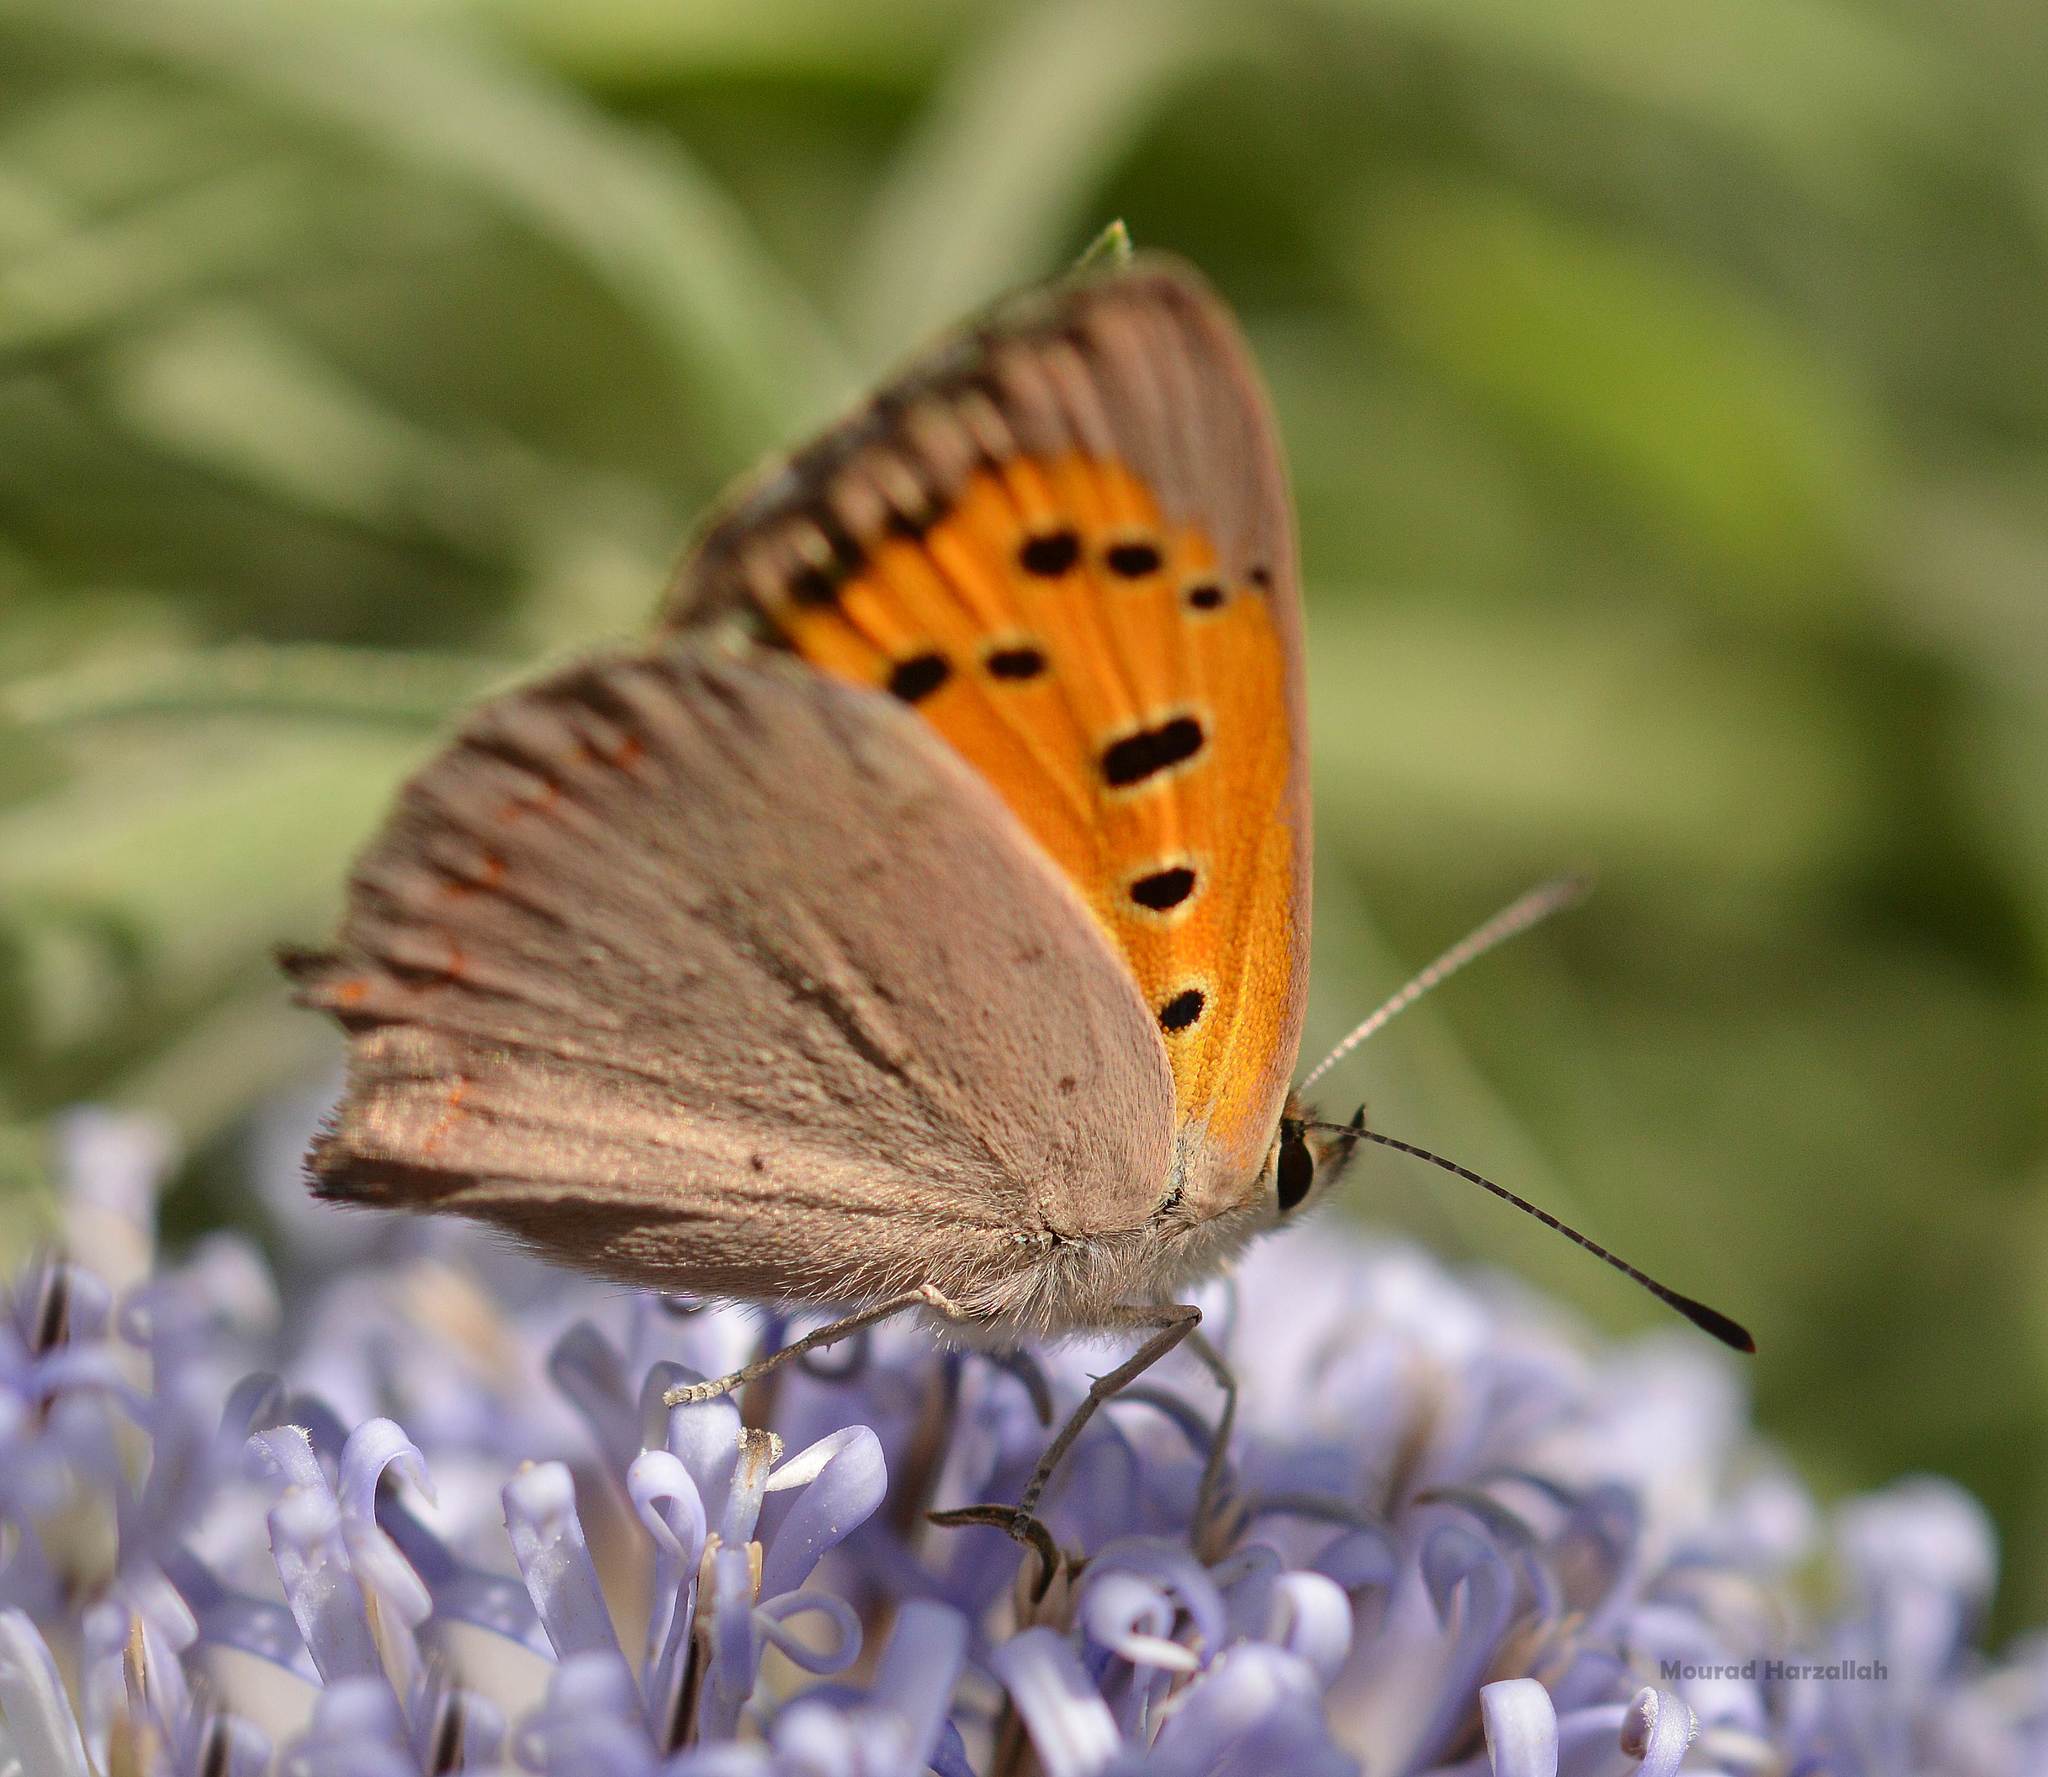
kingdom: Animalia
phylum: Arthropoda
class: Insecta
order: Lepidoptera
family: Lycaenidae
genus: Lycaena
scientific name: Lycaena phlaeas
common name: Small copper
